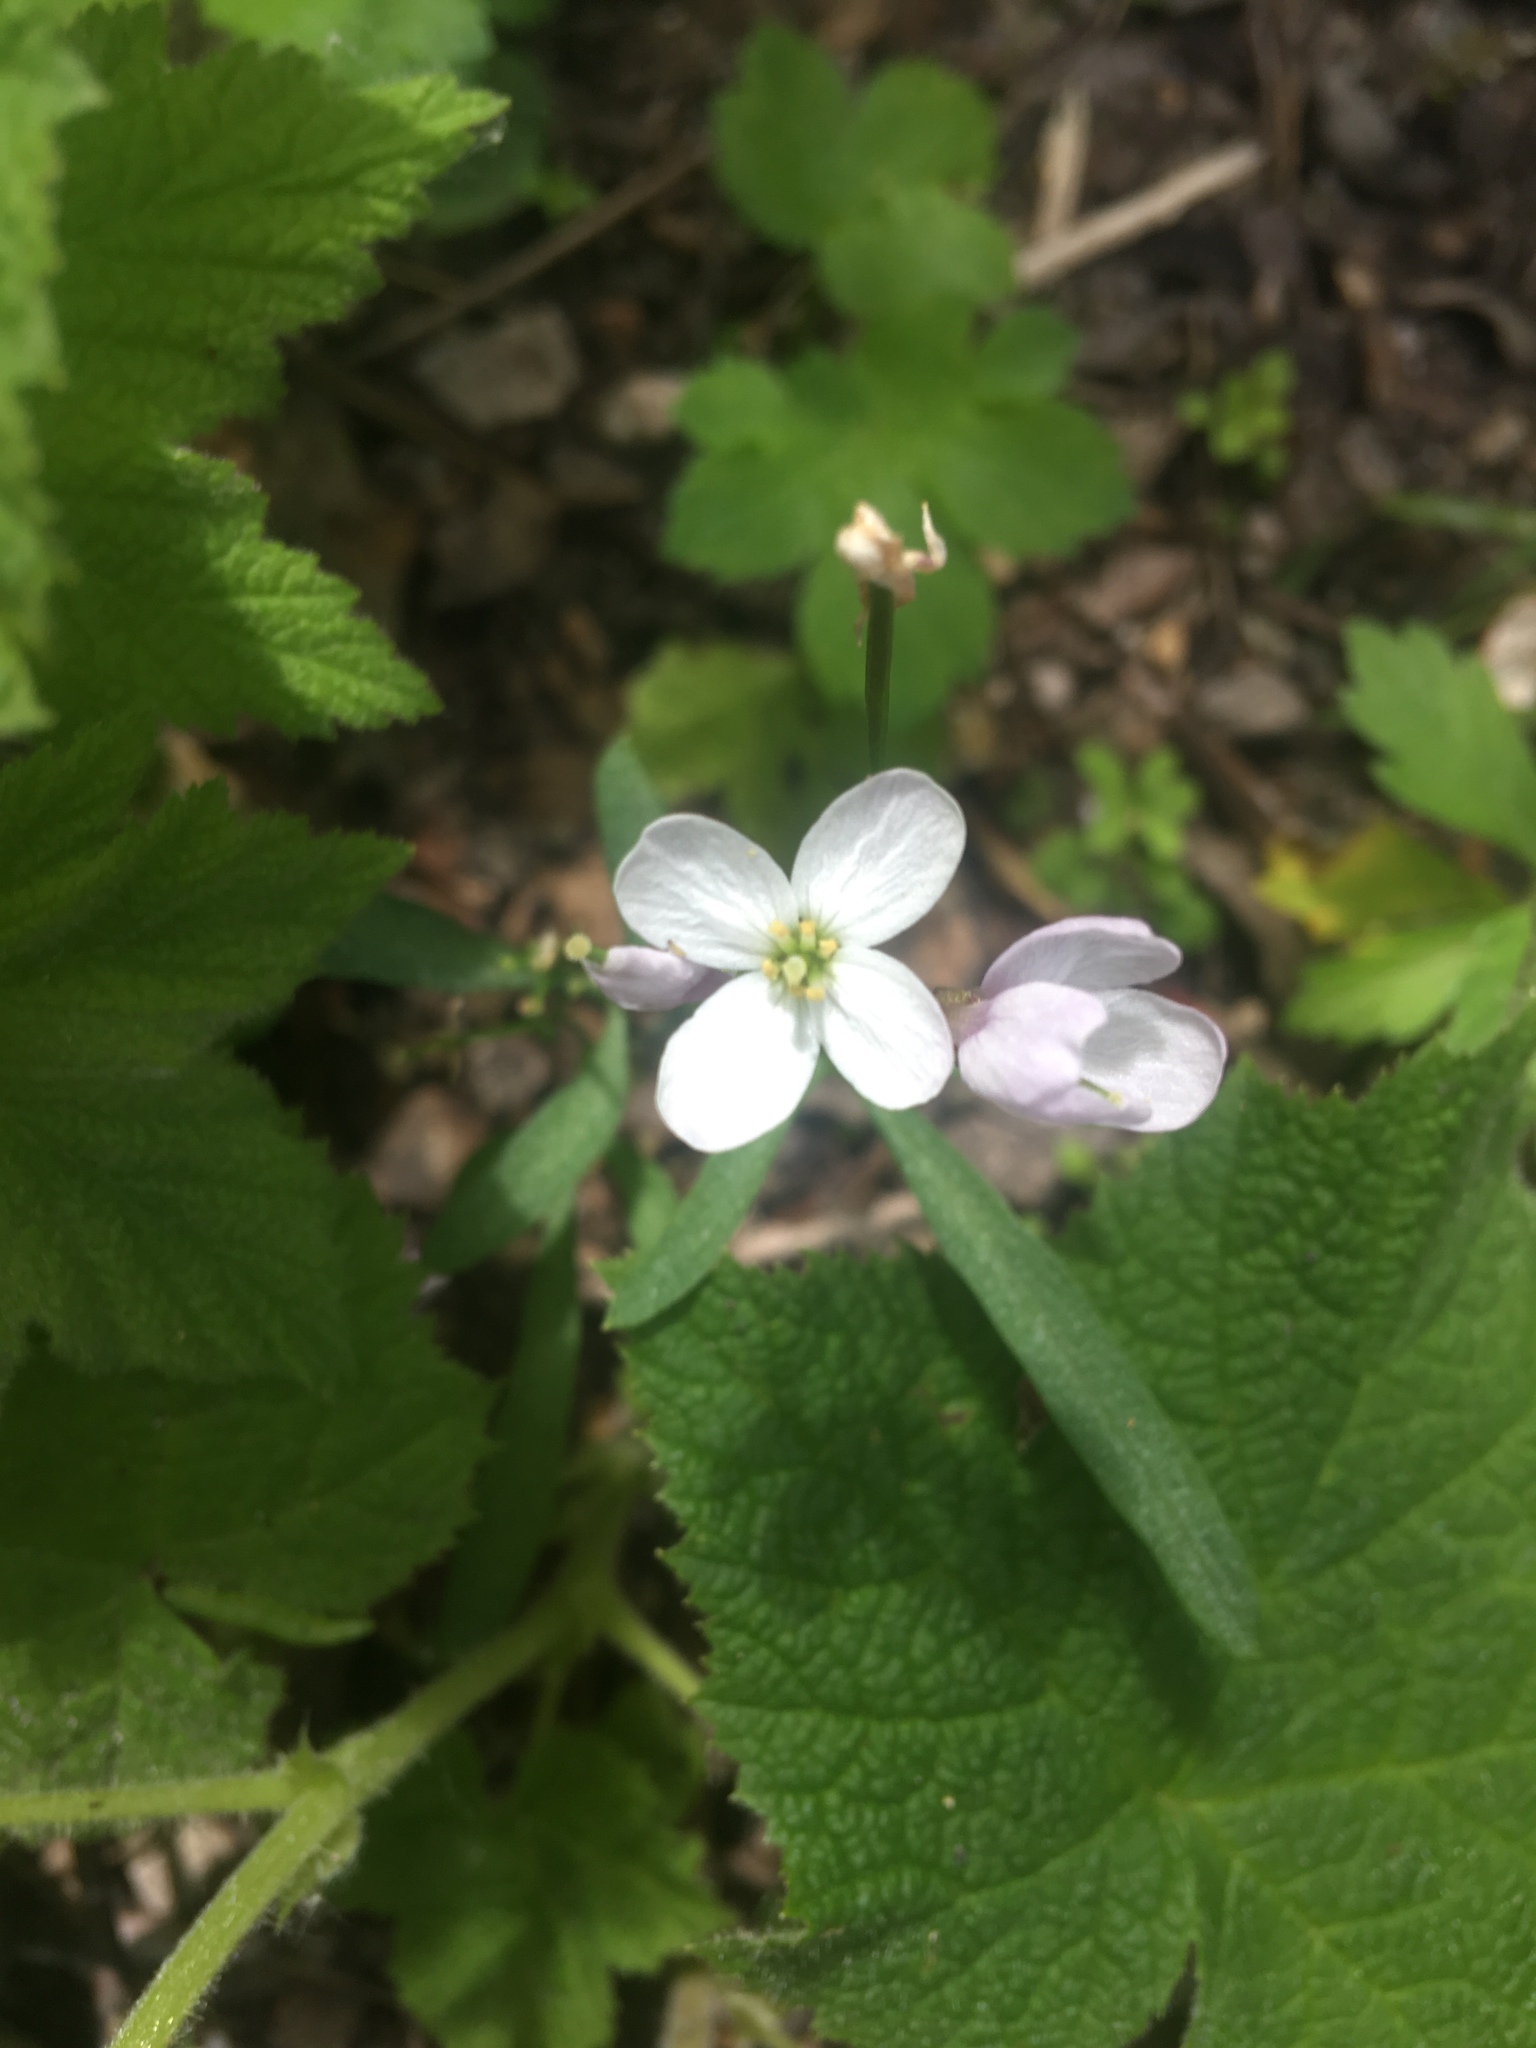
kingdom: Plantae
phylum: Tracheophyta
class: Magnoliopsida
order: Brassicales
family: Brassicaceae
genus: Cardamine
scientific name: Cardamine californica
